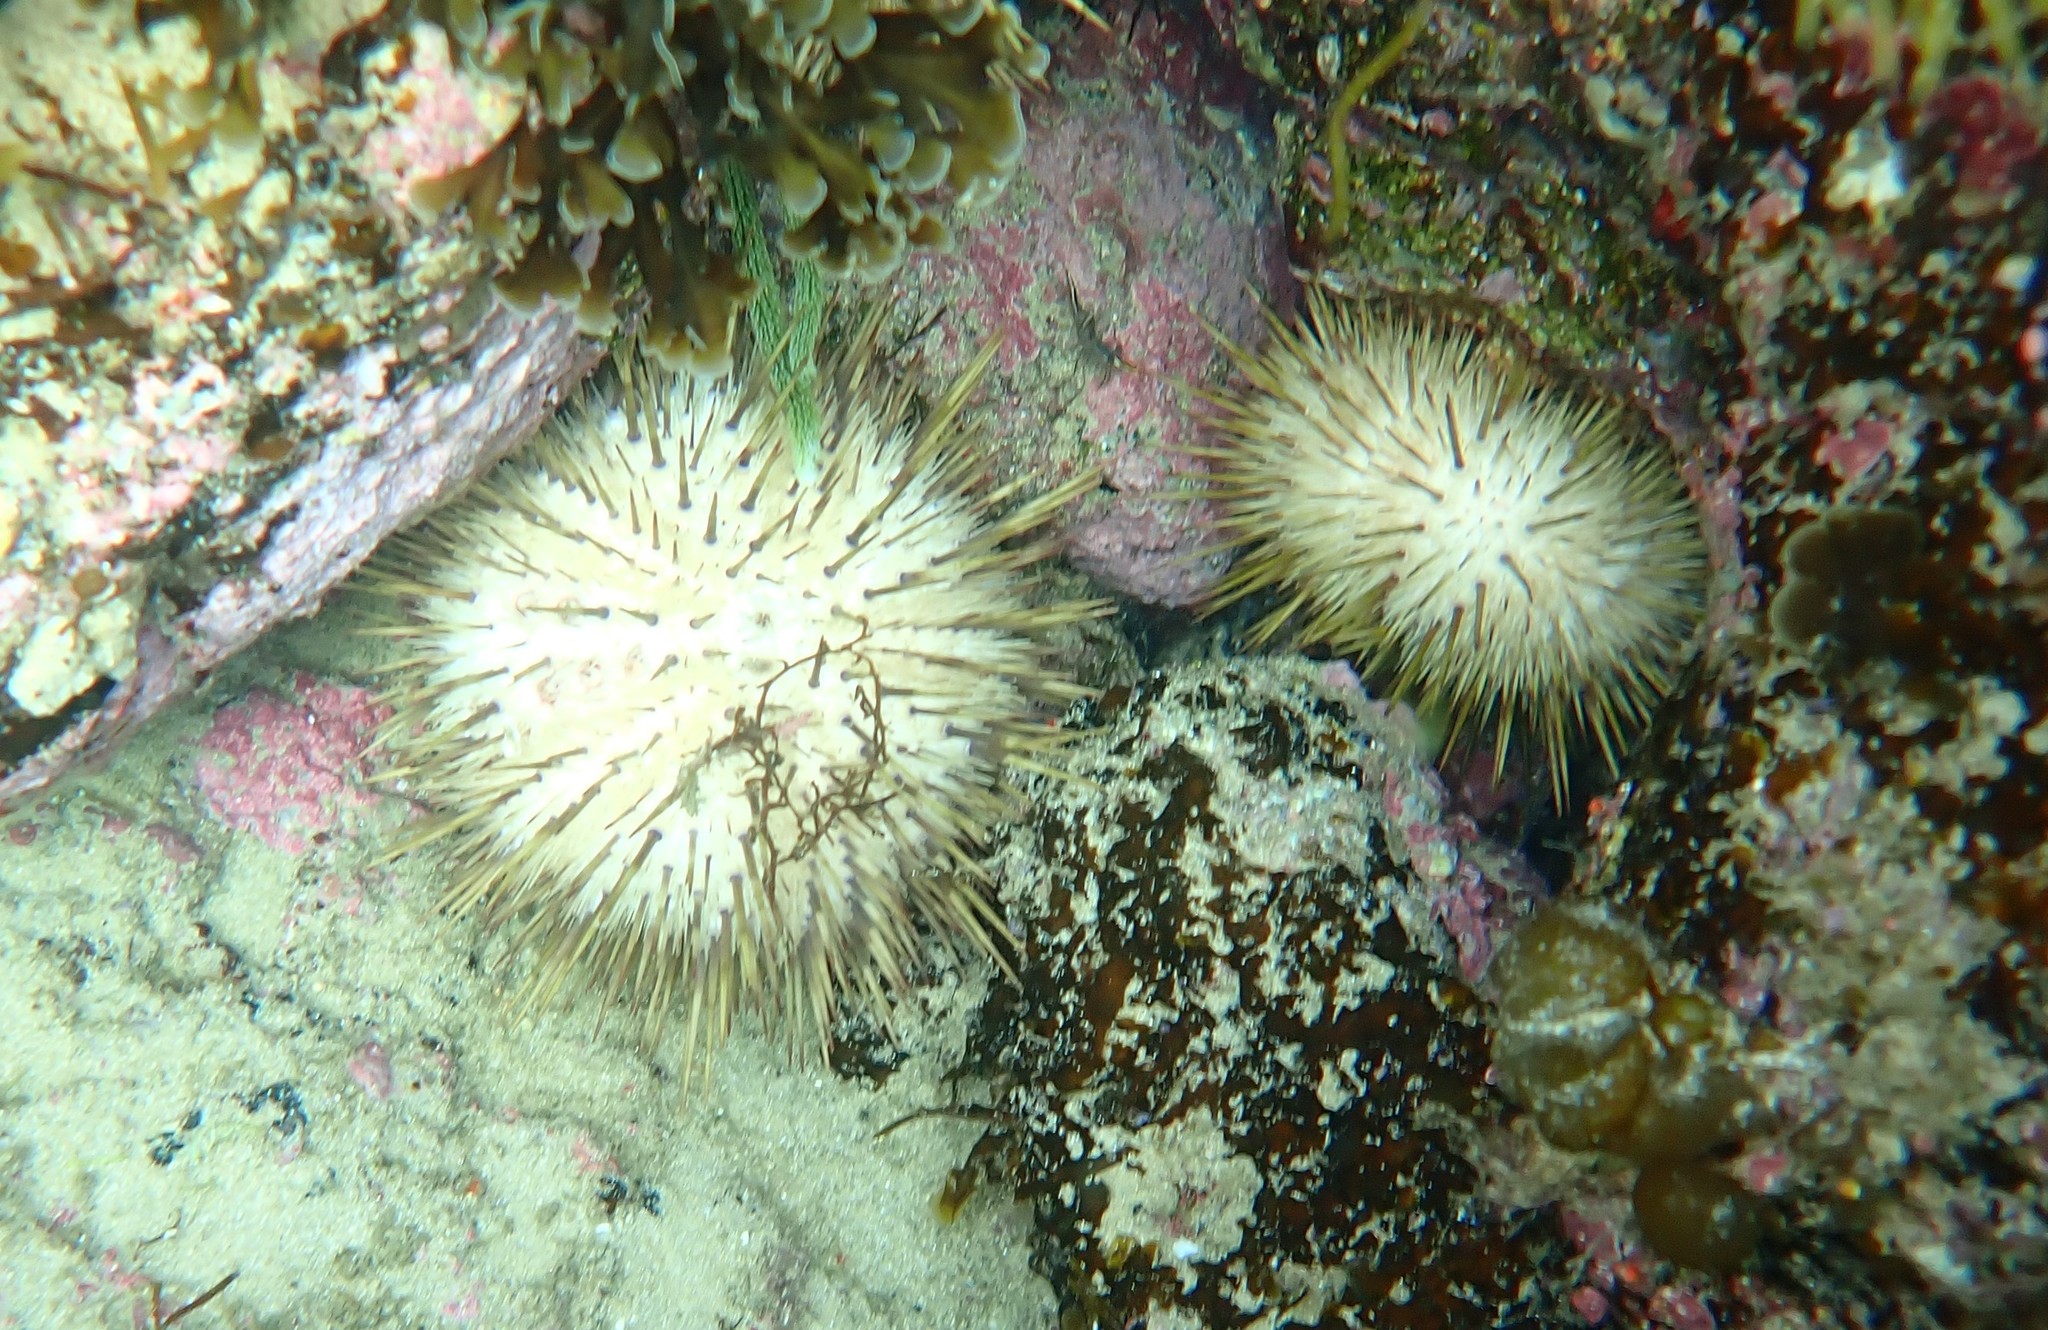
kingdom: Animalia
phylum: Echinodermata
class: Echinoidea
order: Camarodonta
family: Echinometridae
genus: Heliocidaris
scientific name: Heliocidaris erythrogramma
